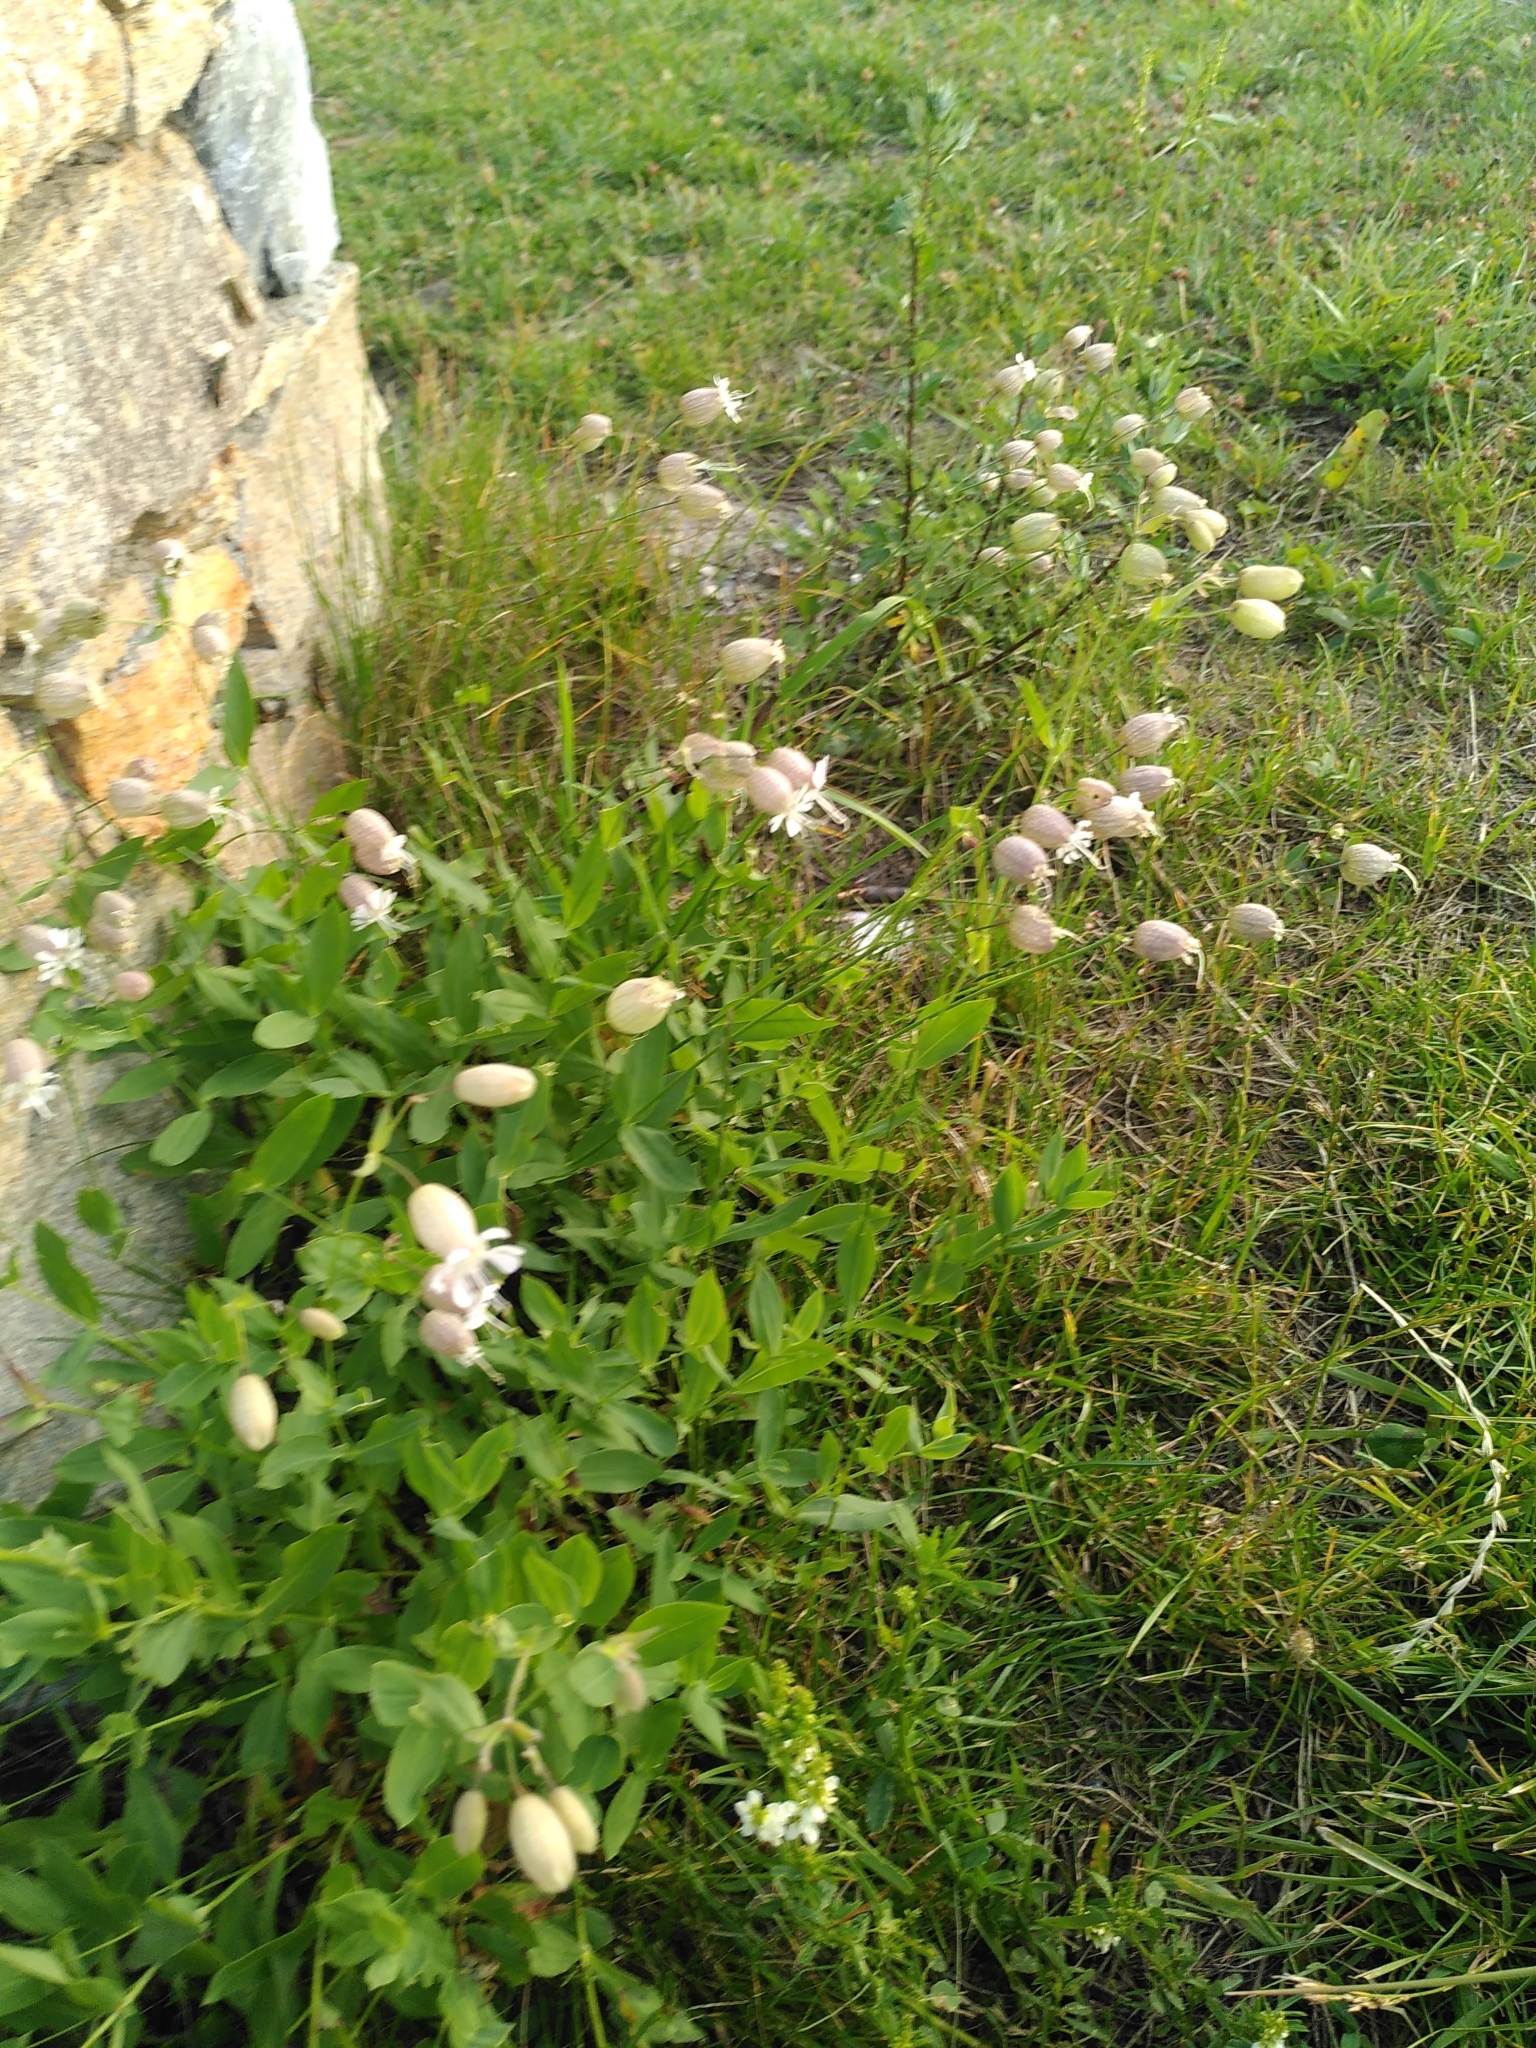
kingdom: Plantae
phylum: Tracheophyta
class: Magnoliopsida
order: Caryophyllales
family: Caryophyllaceae
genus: Silene
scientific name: Silene vulgaris
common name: Bladder campion
